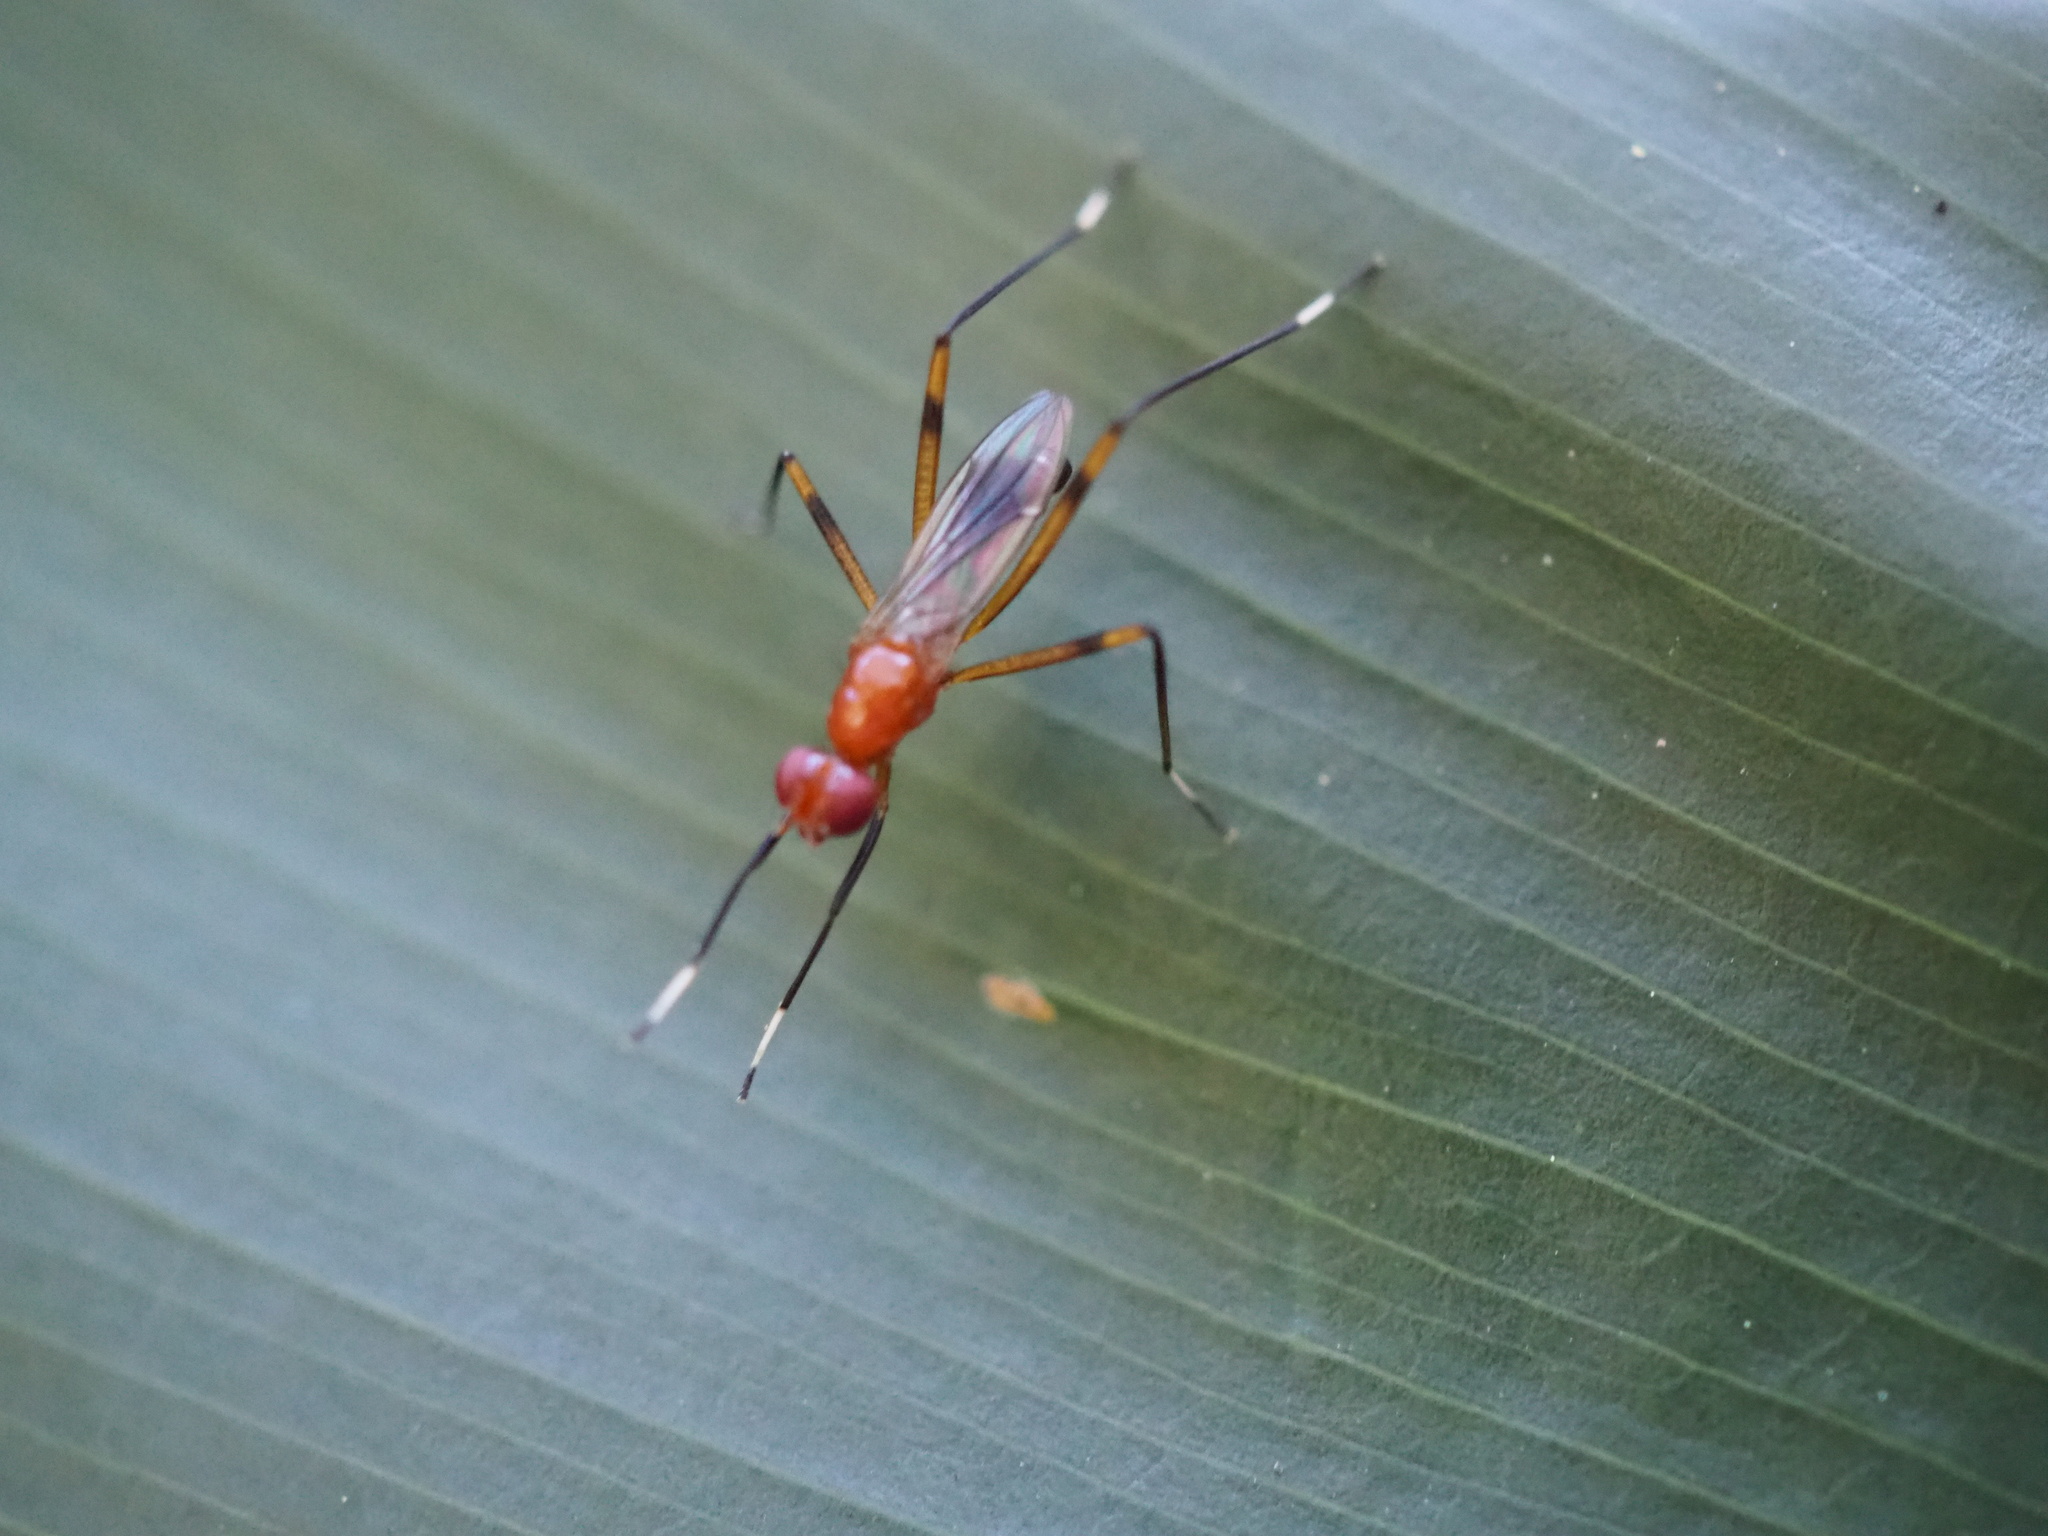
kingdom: Animalia
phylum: Arthropoda
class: Insecta
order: Diptera
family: Micropezidae
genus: Grallipeza
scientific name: Grallipeza nebulosa
